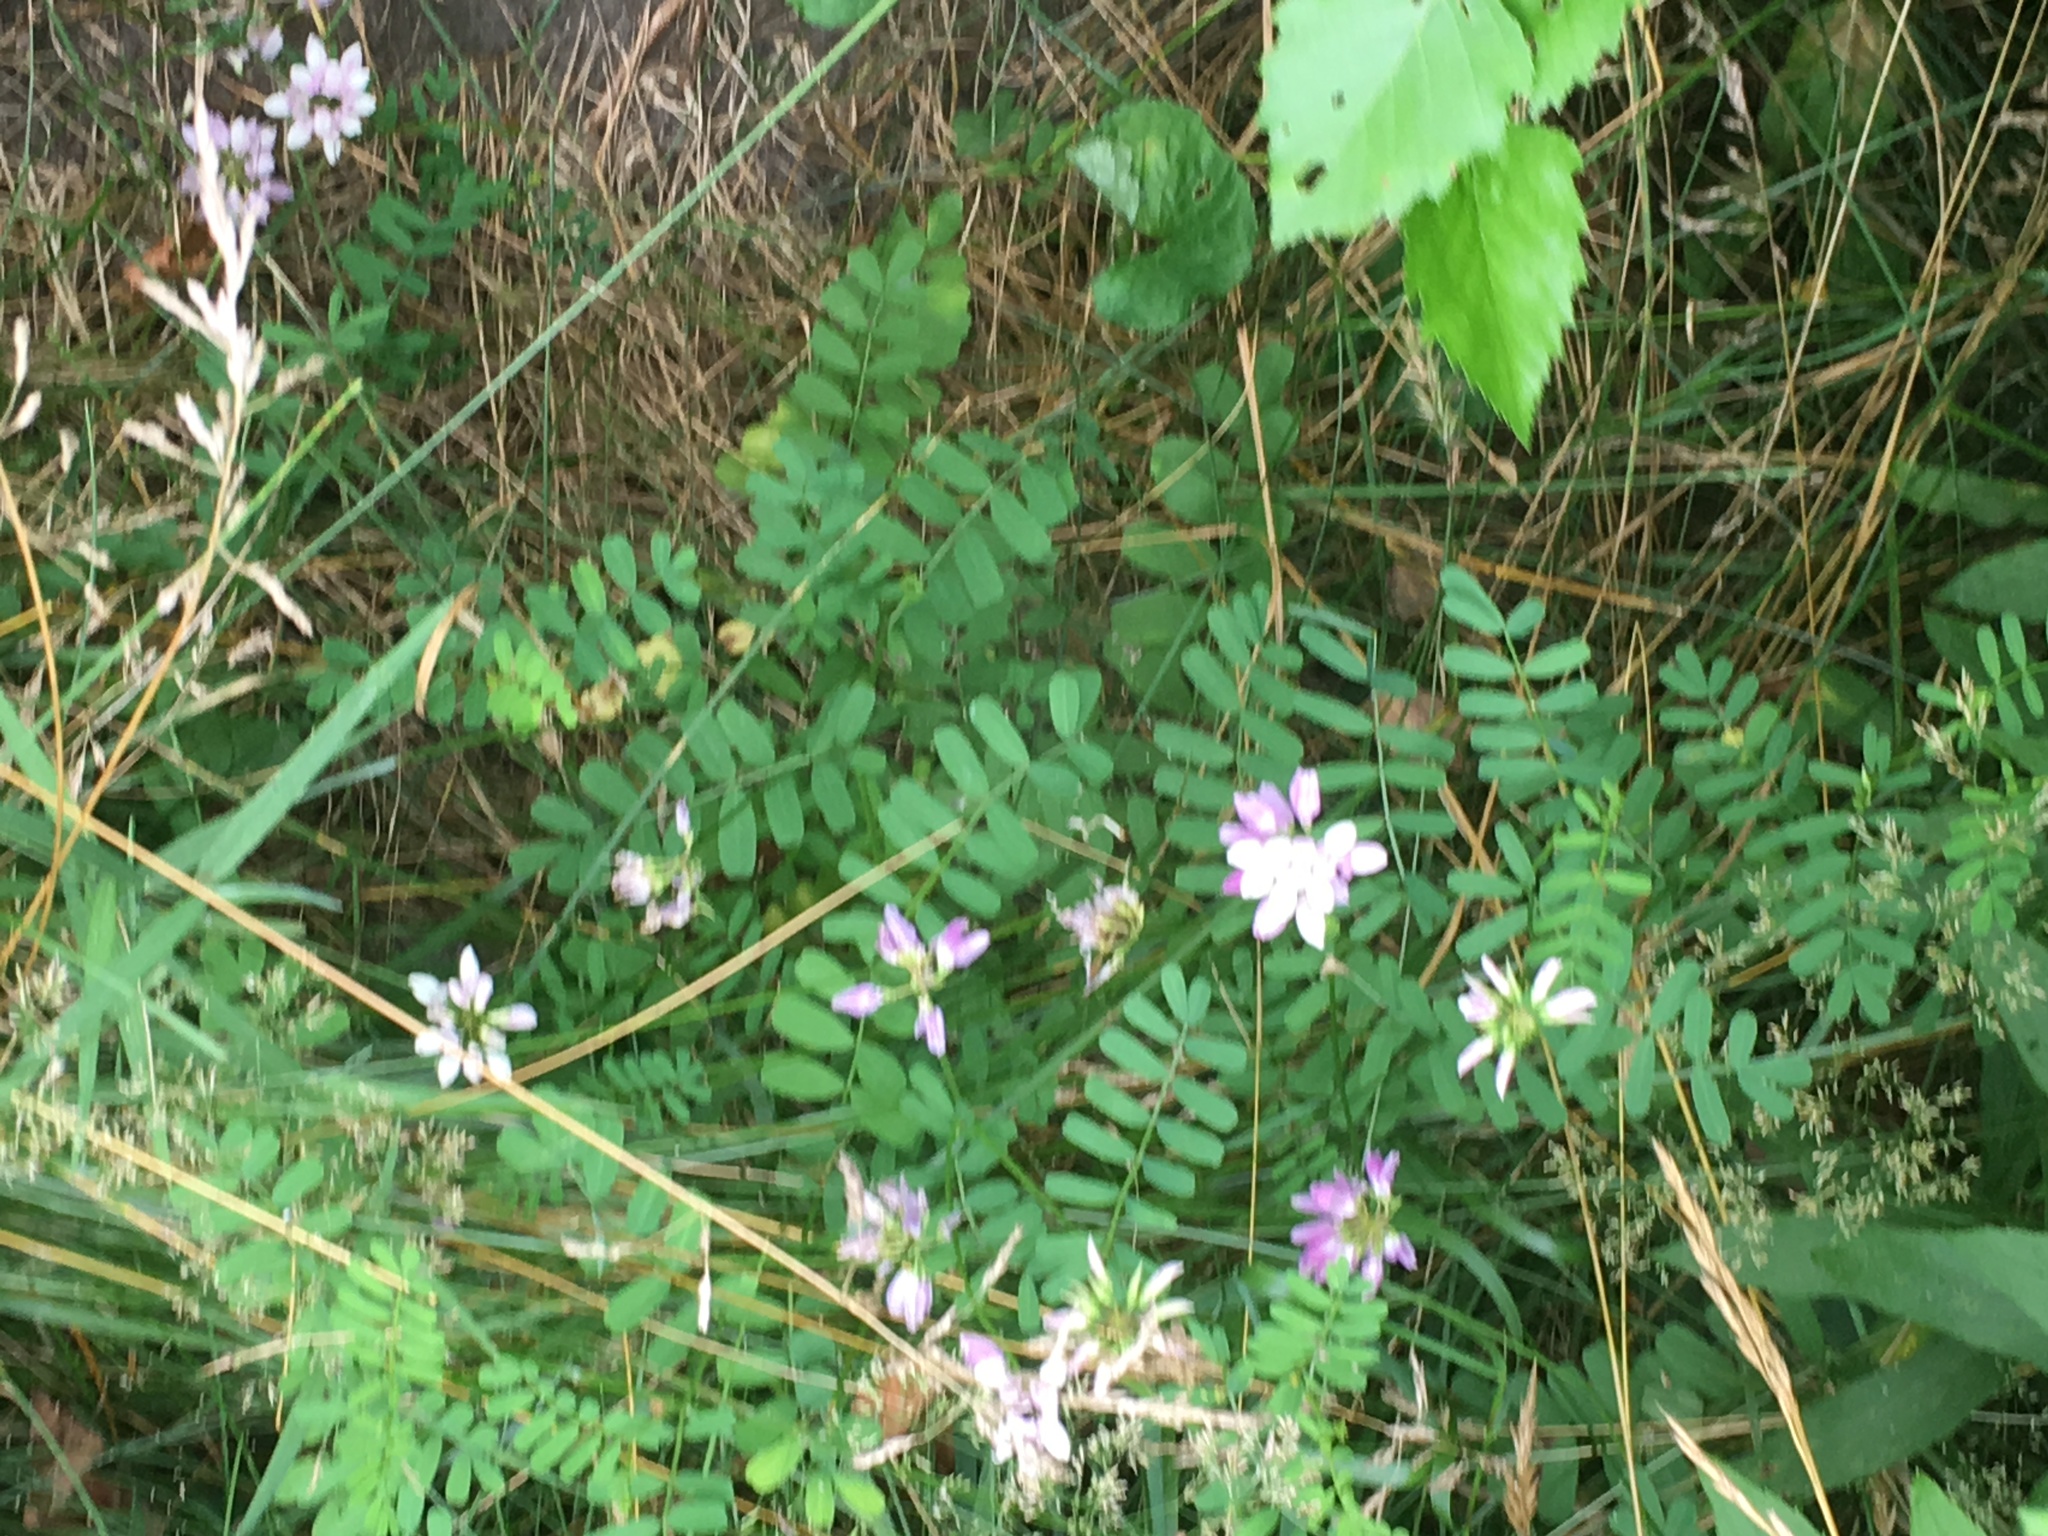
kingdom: Plantae
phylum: Tracheophyta
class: Magnoliopsida
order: Fabales
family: Fabaceae
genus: Coronilla
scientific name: Coronilla varia
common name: Crownvetch
